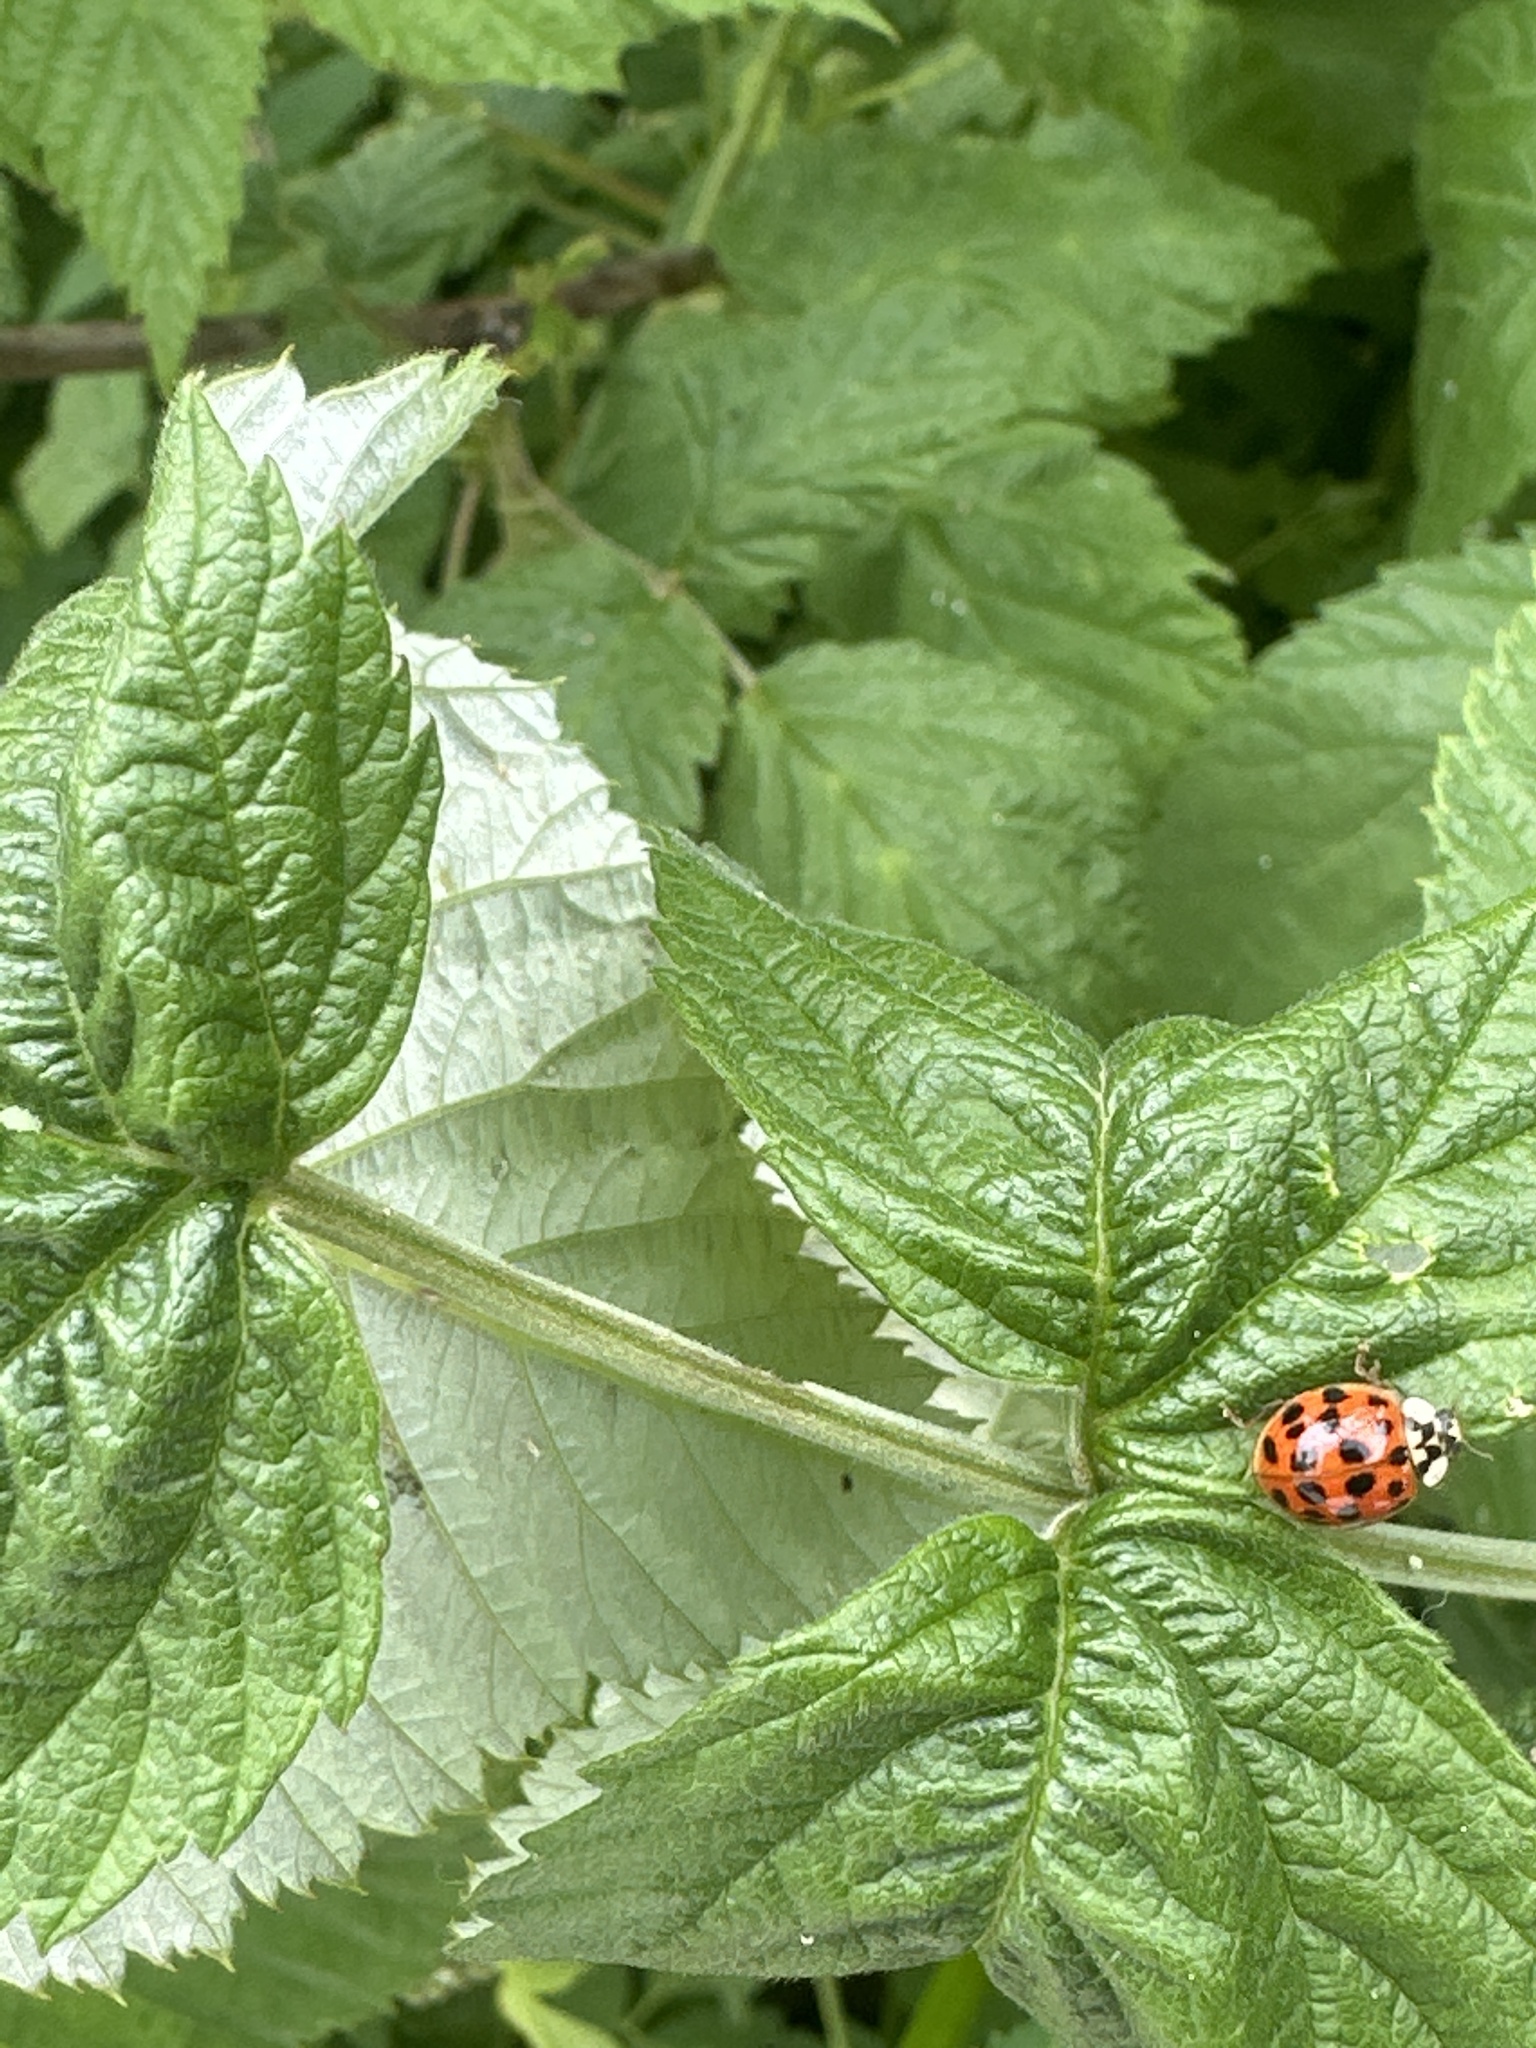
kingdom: Animalia
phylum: Arthropoda
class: Insecta
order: Coleoptera
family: Coccinellidae
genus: Harmonia
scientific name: Harmonia axyridis
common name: Harlequin ladybird
